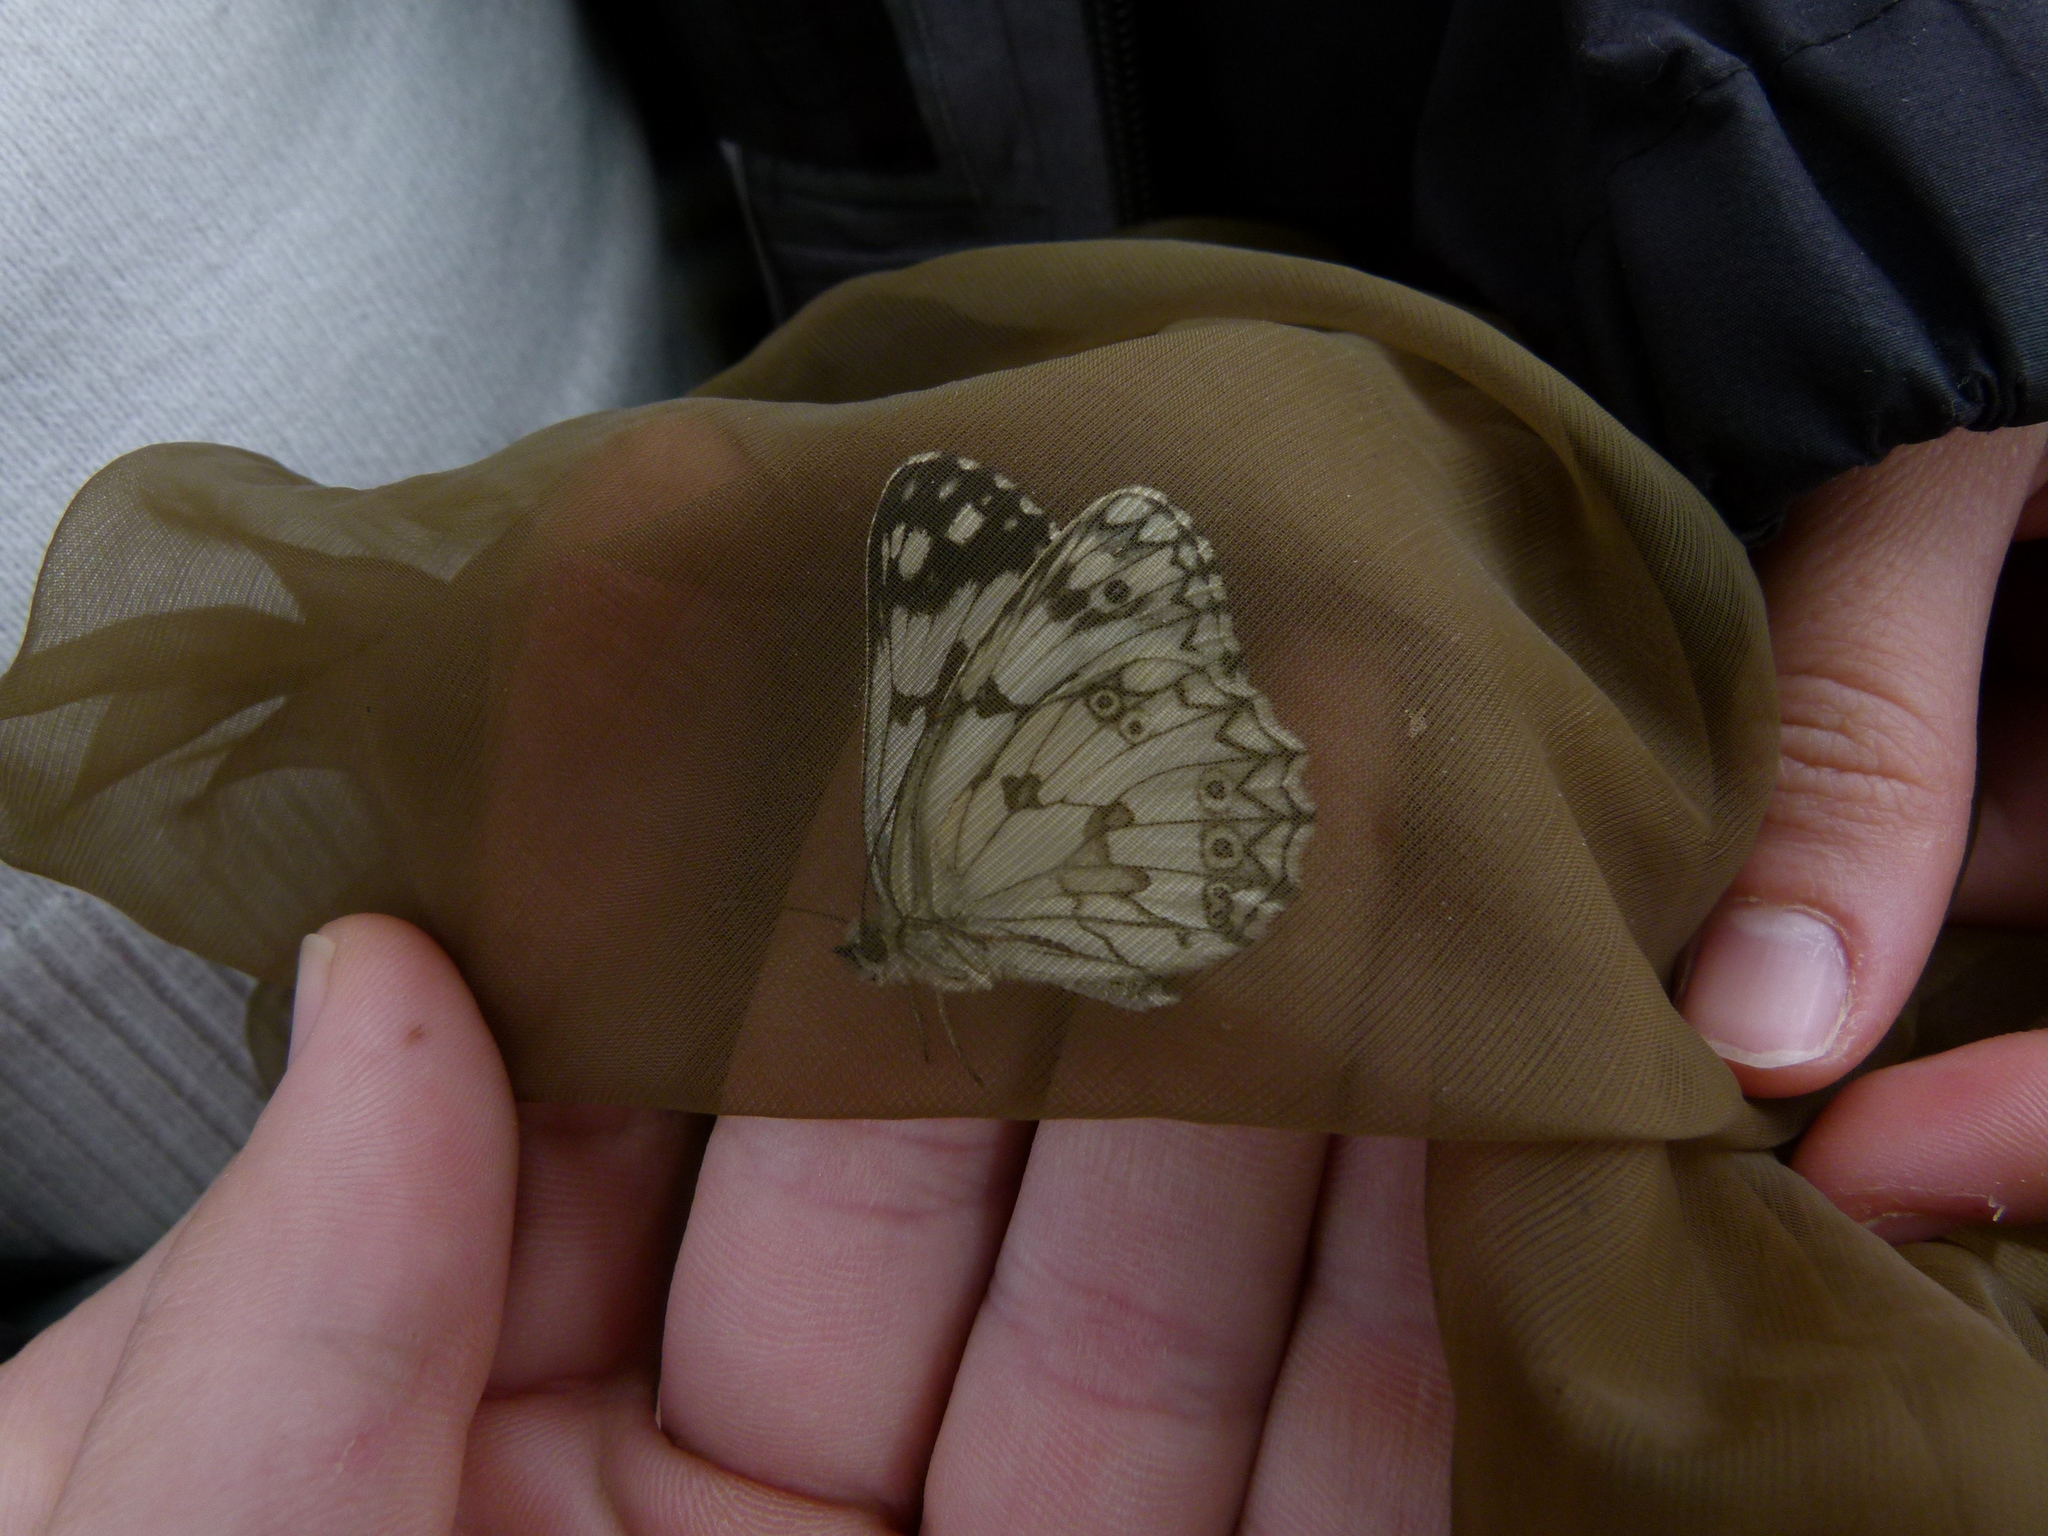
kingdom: Animalia
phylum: Arthropoda
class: Insecta
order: Lepidoptera
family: Nymphalidae
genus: Melanargia
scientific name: Melanargia lachesis
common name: Iberian marbled white
